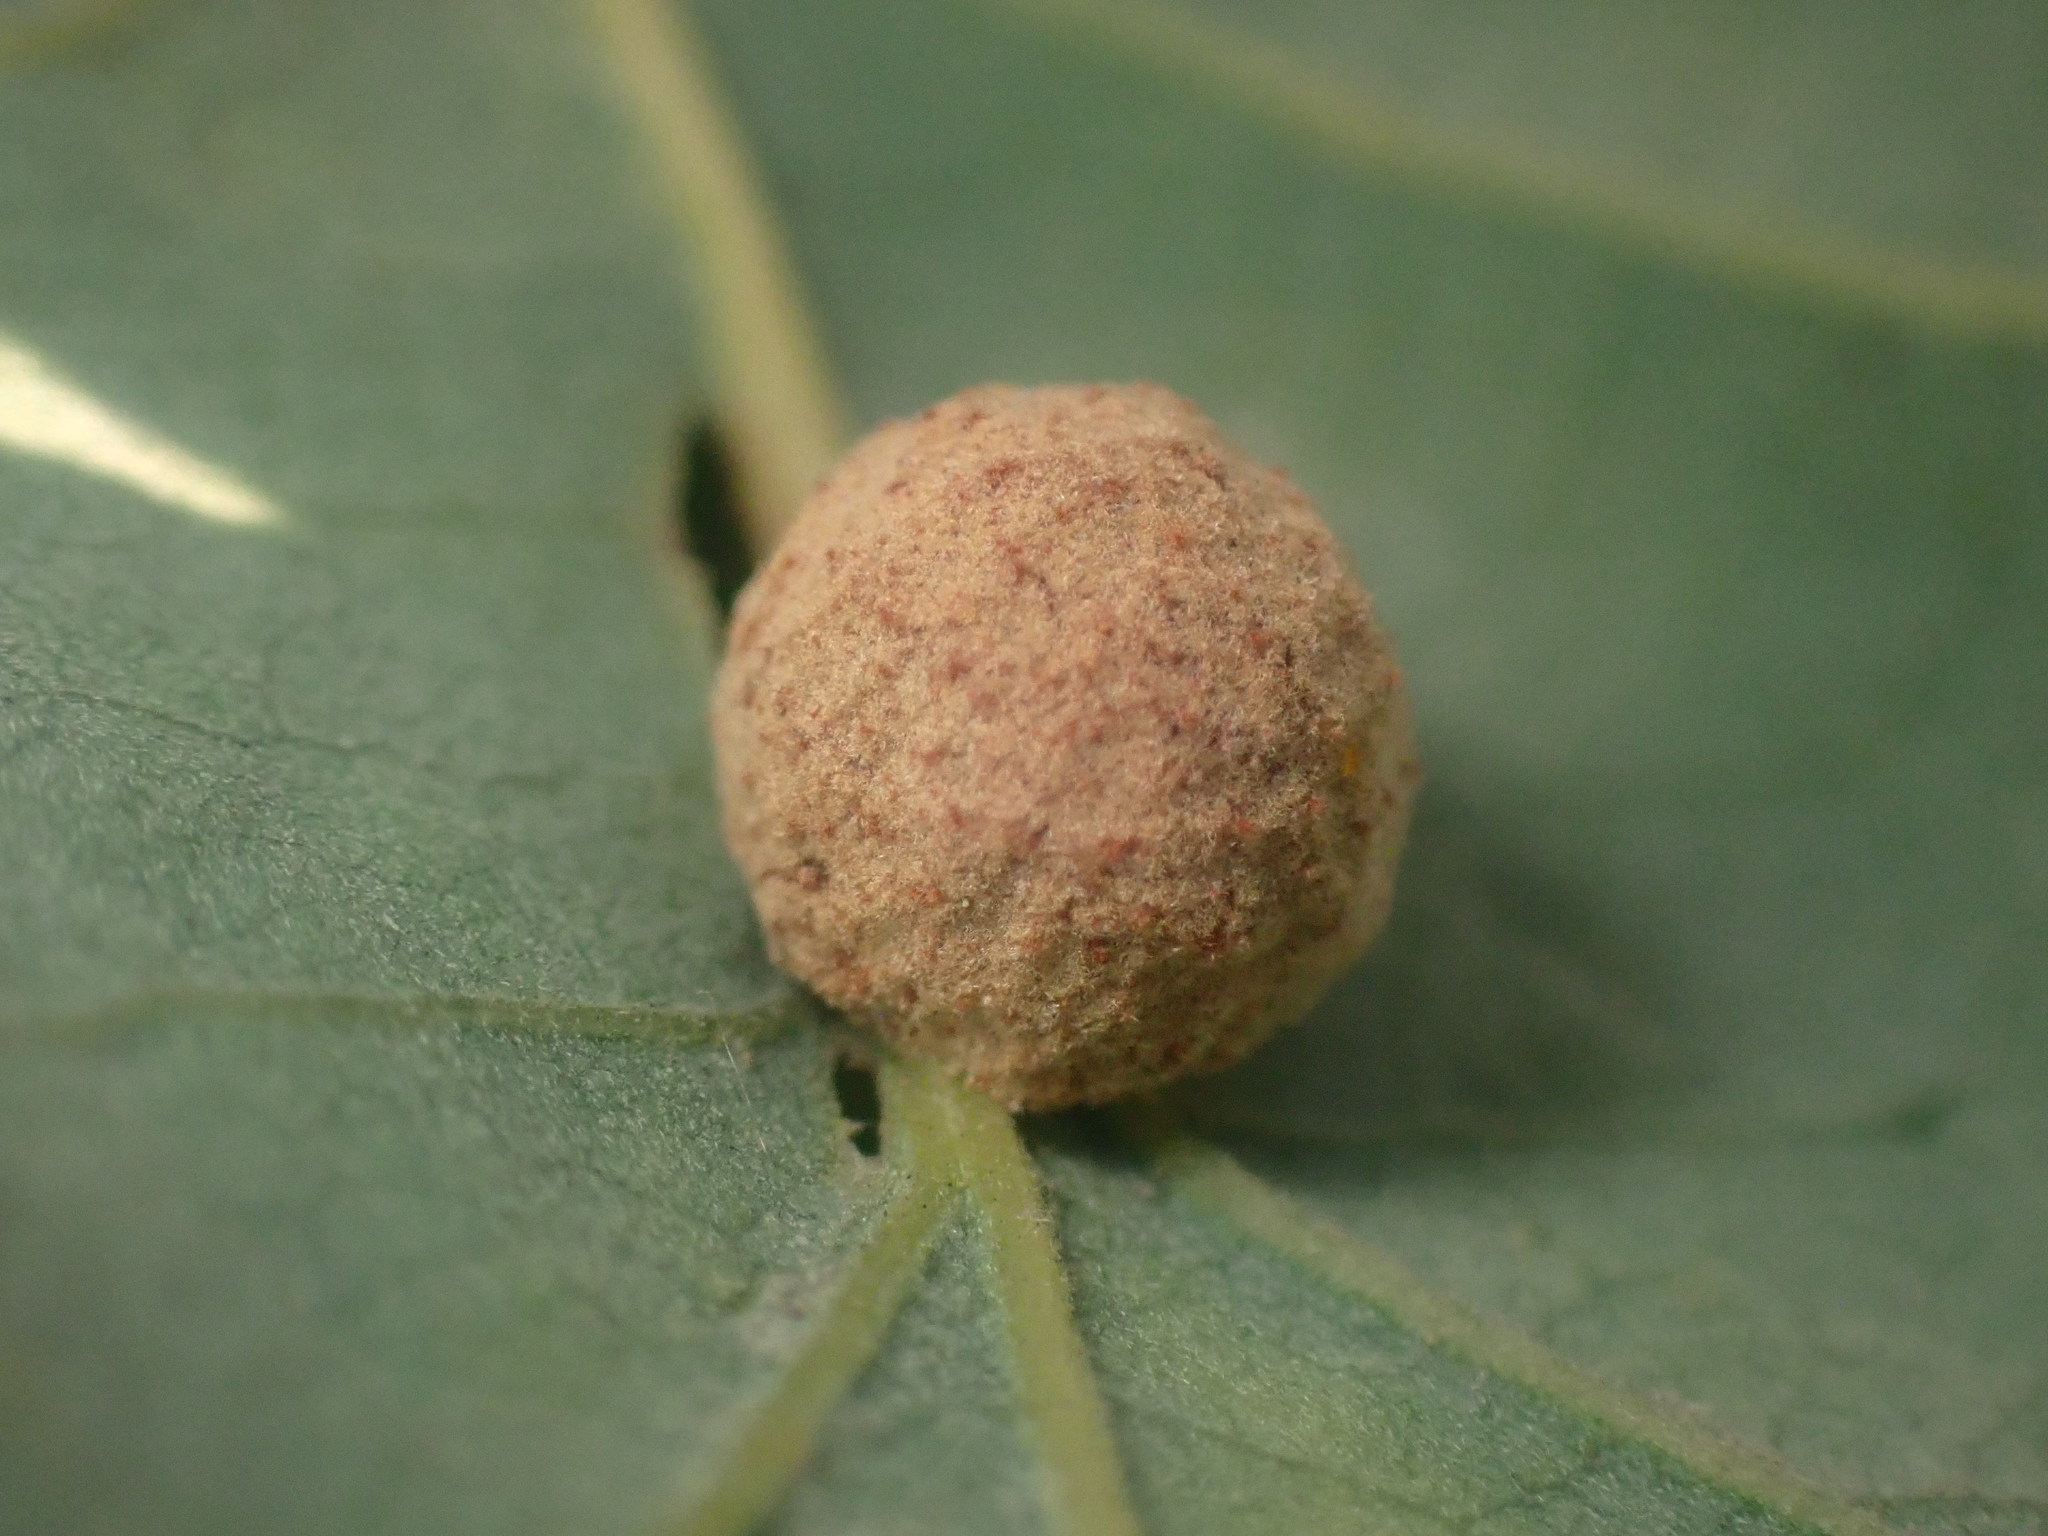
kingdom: Animalia
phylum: Arthropoda
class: Insecta
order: Hymenoptera
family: Cynipidae
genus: Cynips
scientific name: Cynips conspicua
